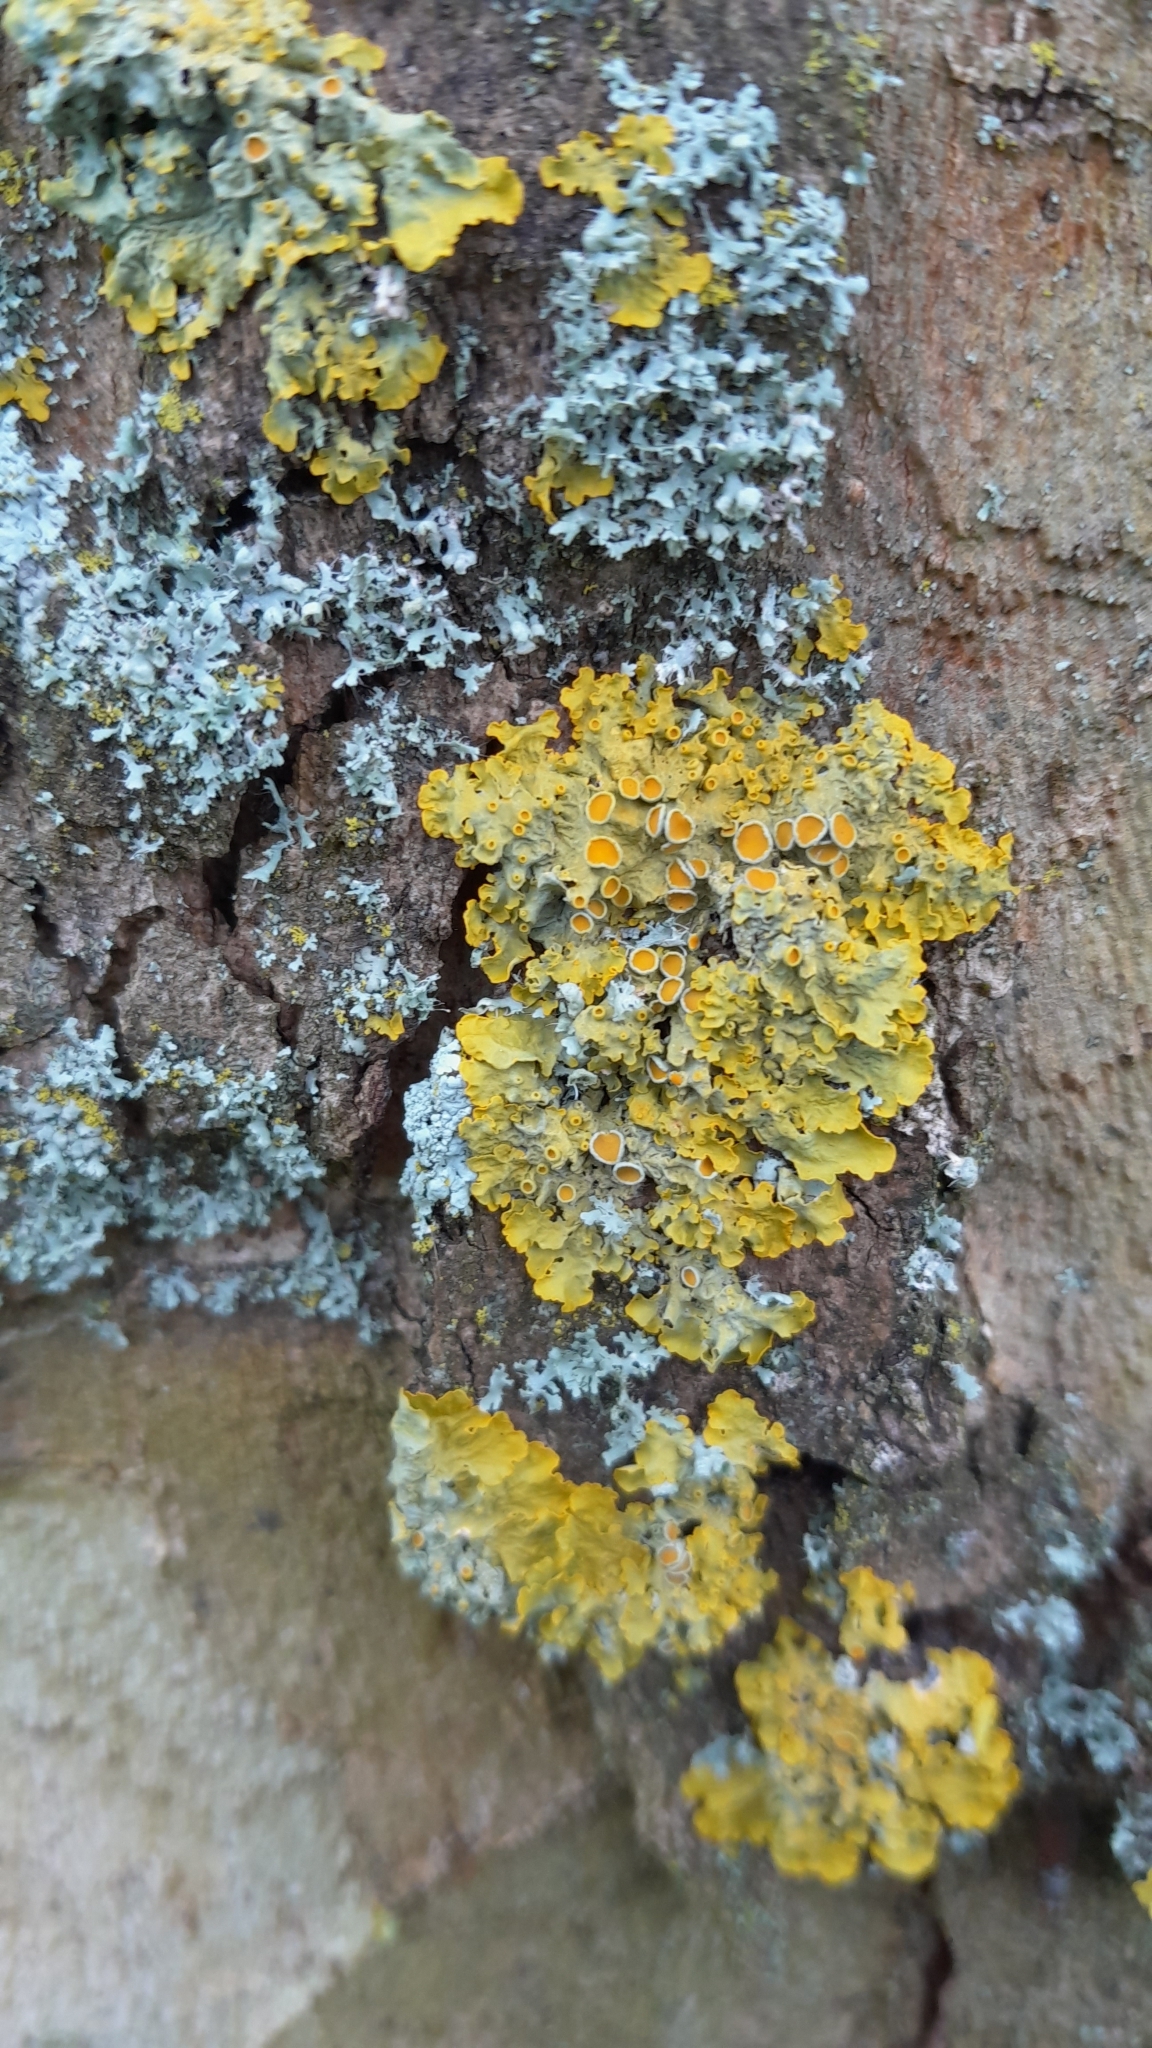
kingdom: Fungi
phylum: Ascomycota
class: Lecanoromycetes
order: Teloschistales
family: Teloschistaceae
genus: Xanthoria
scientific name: Xanthoria parietina
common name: Common orange lichen
